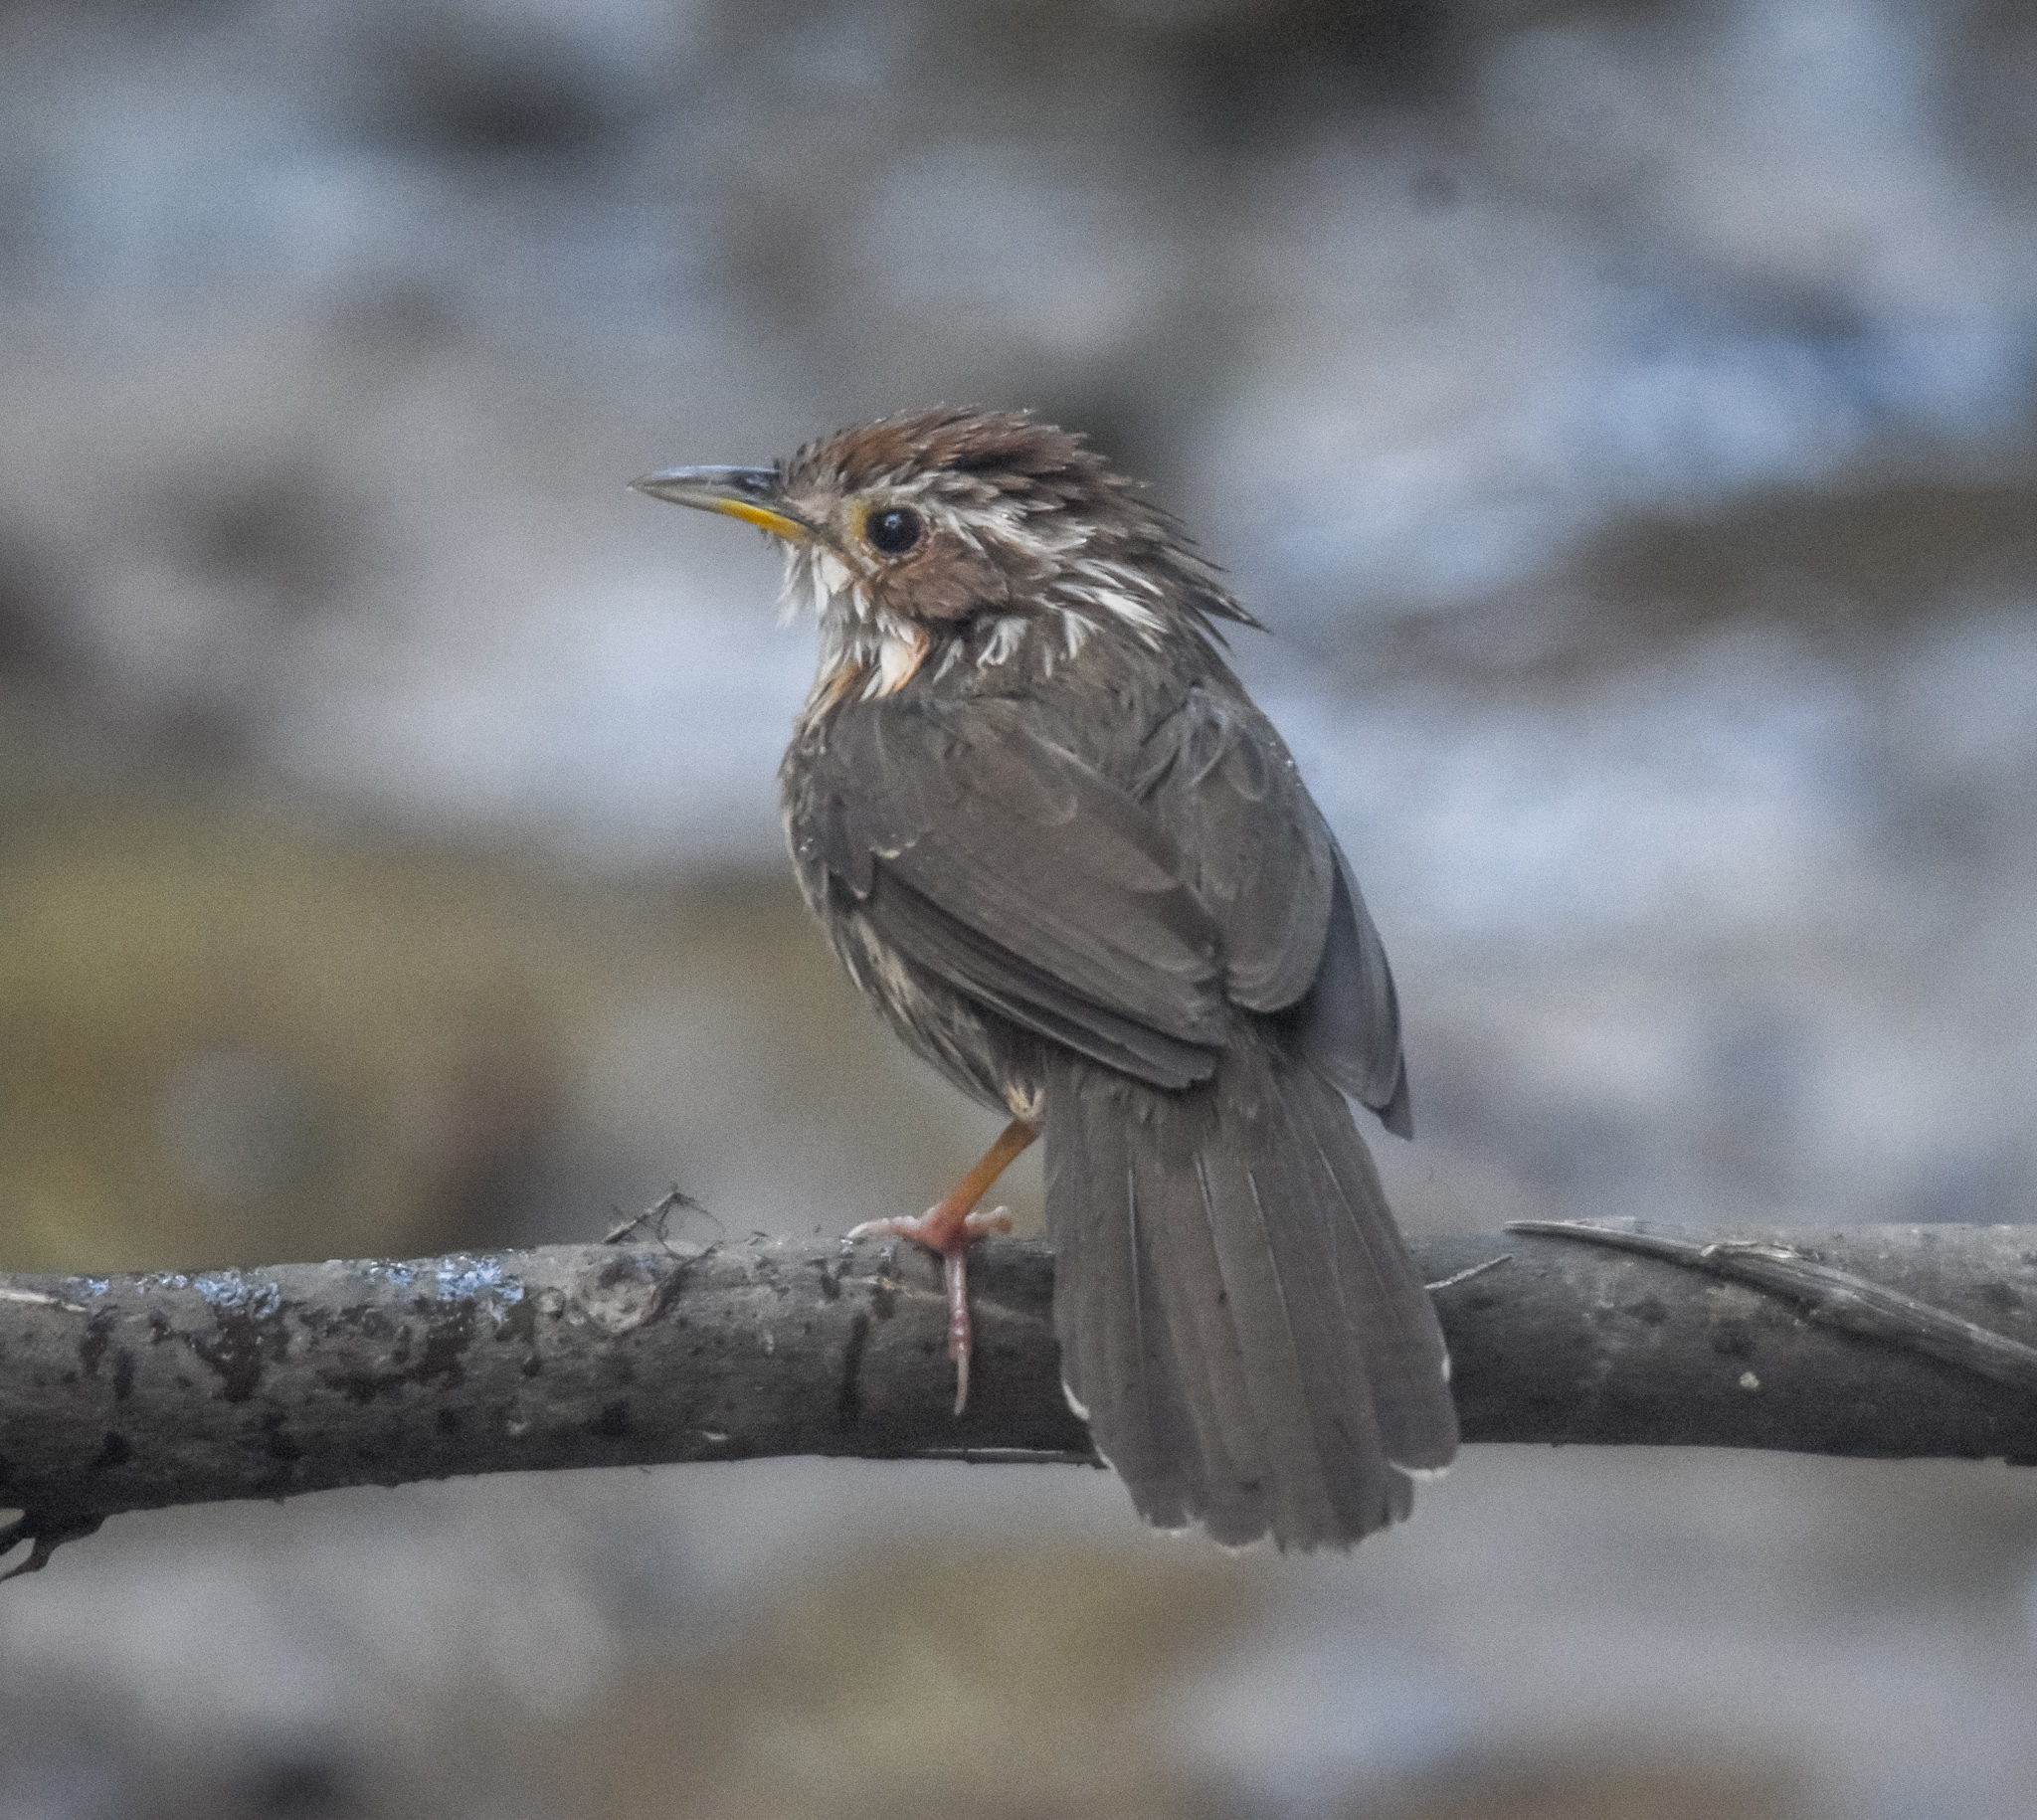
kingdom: Animalia
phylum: Chordata
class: Aves
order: Passeriformes
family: Pellorneidae
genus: Pellorneum
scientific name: Pellorneum ruficeps
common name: Puff-throated babbler
